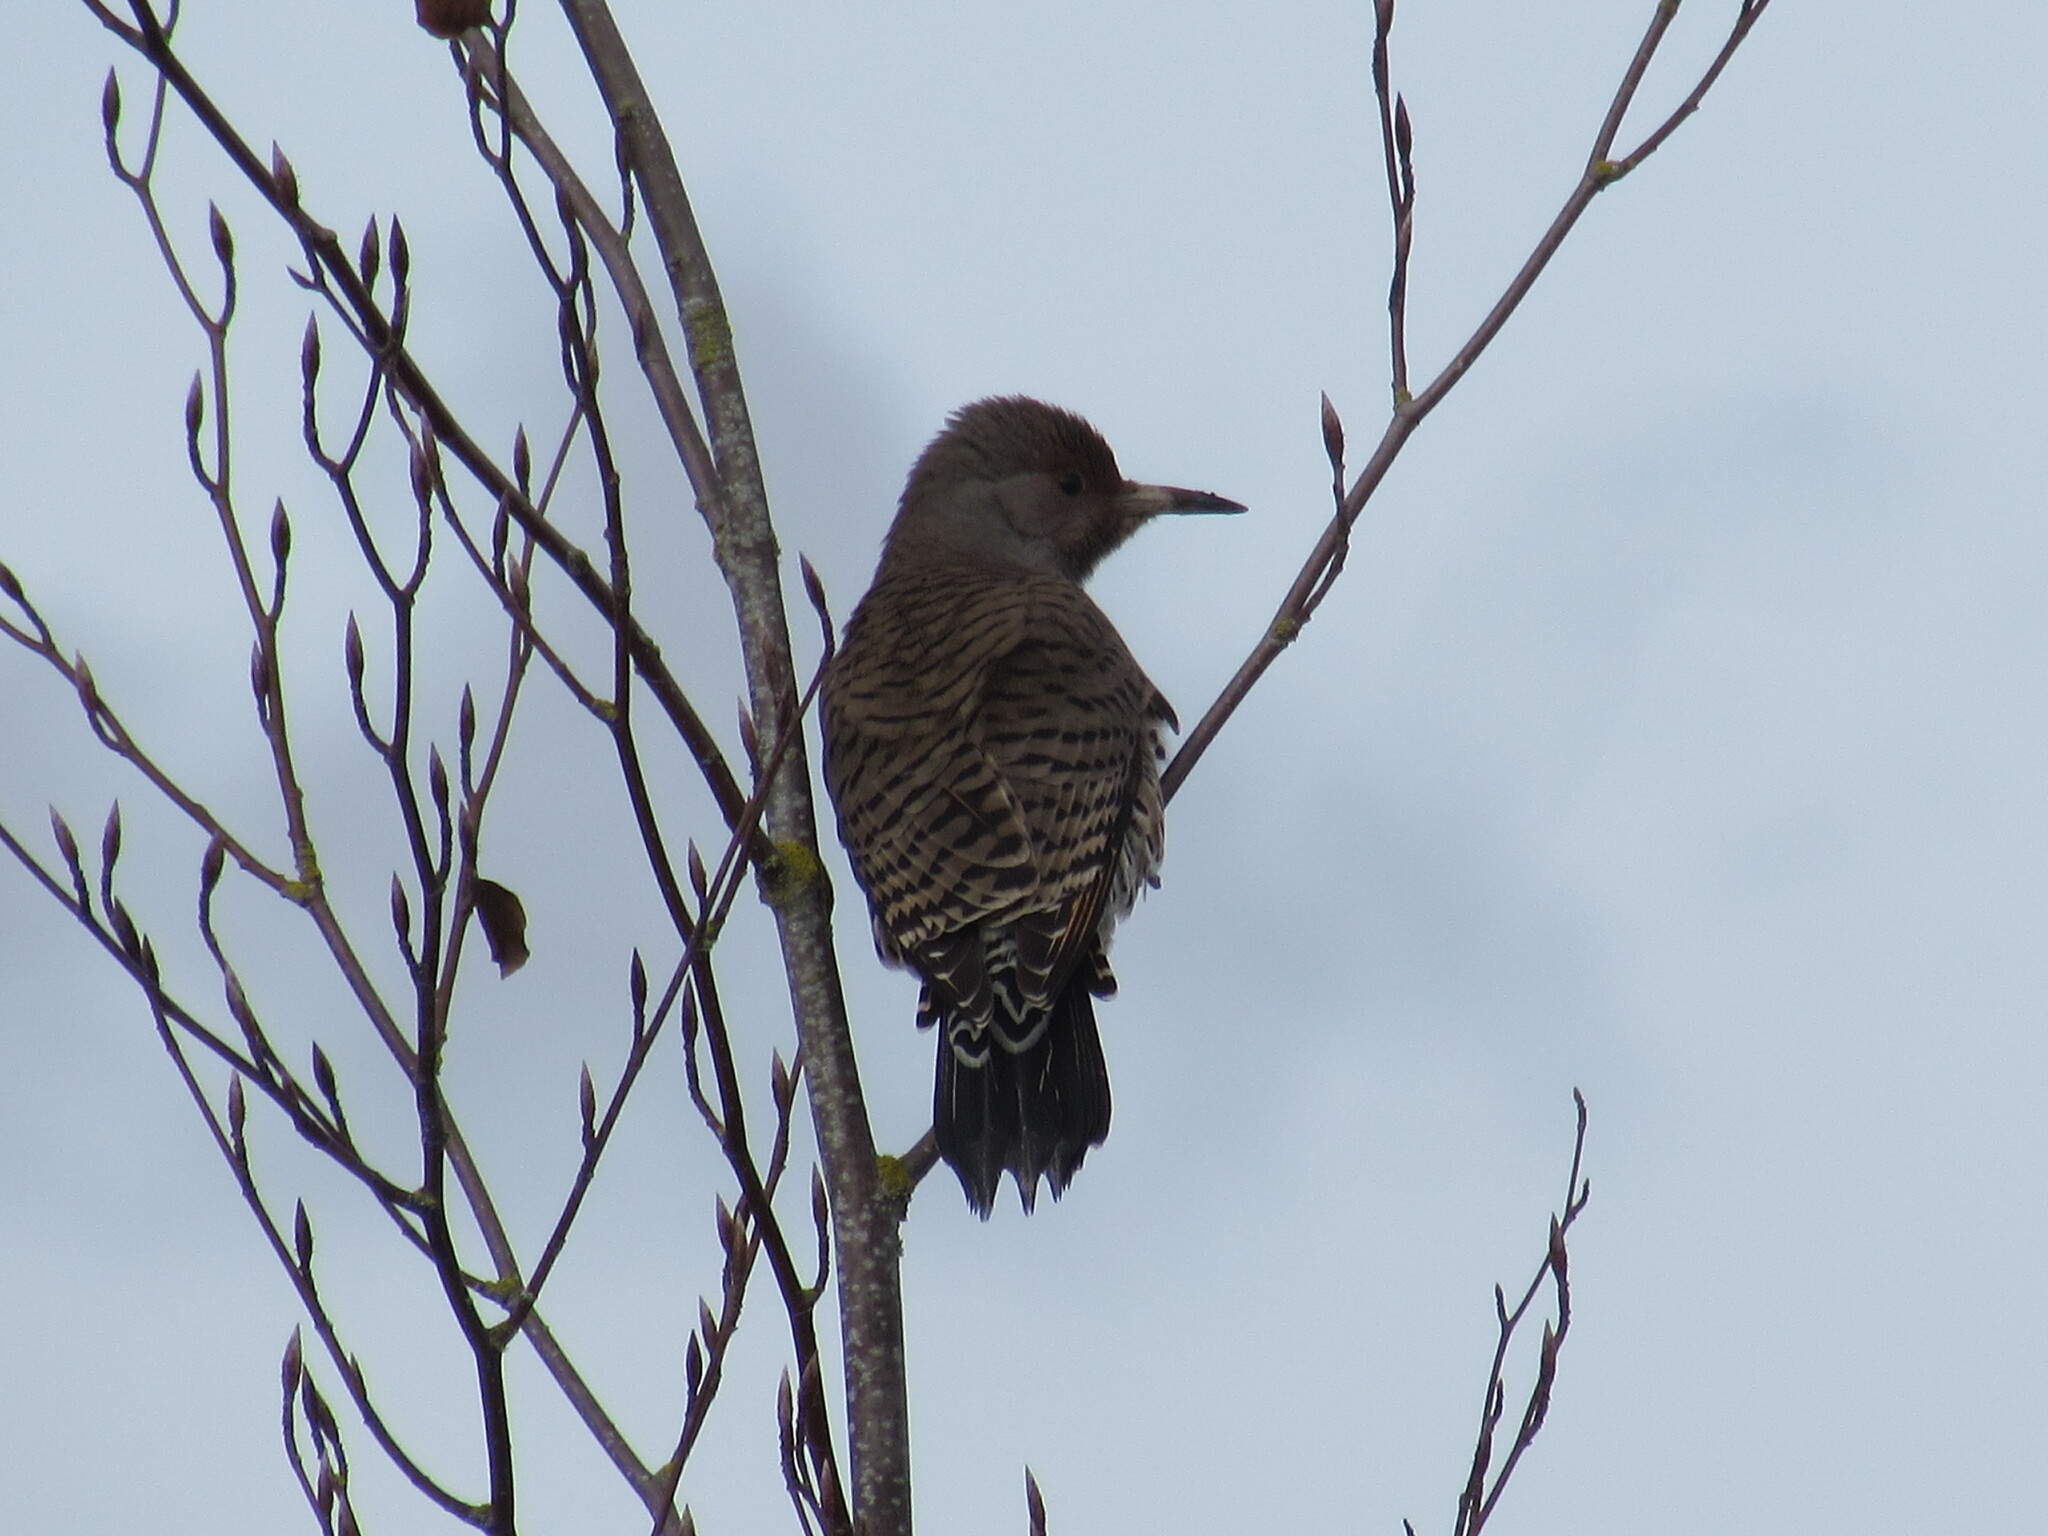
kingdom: Animalia
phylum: Chordata
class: Aves
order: Piciformes
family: Picidae
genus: Colaptes
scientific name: Colaptes auratus
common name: Northern flicker
